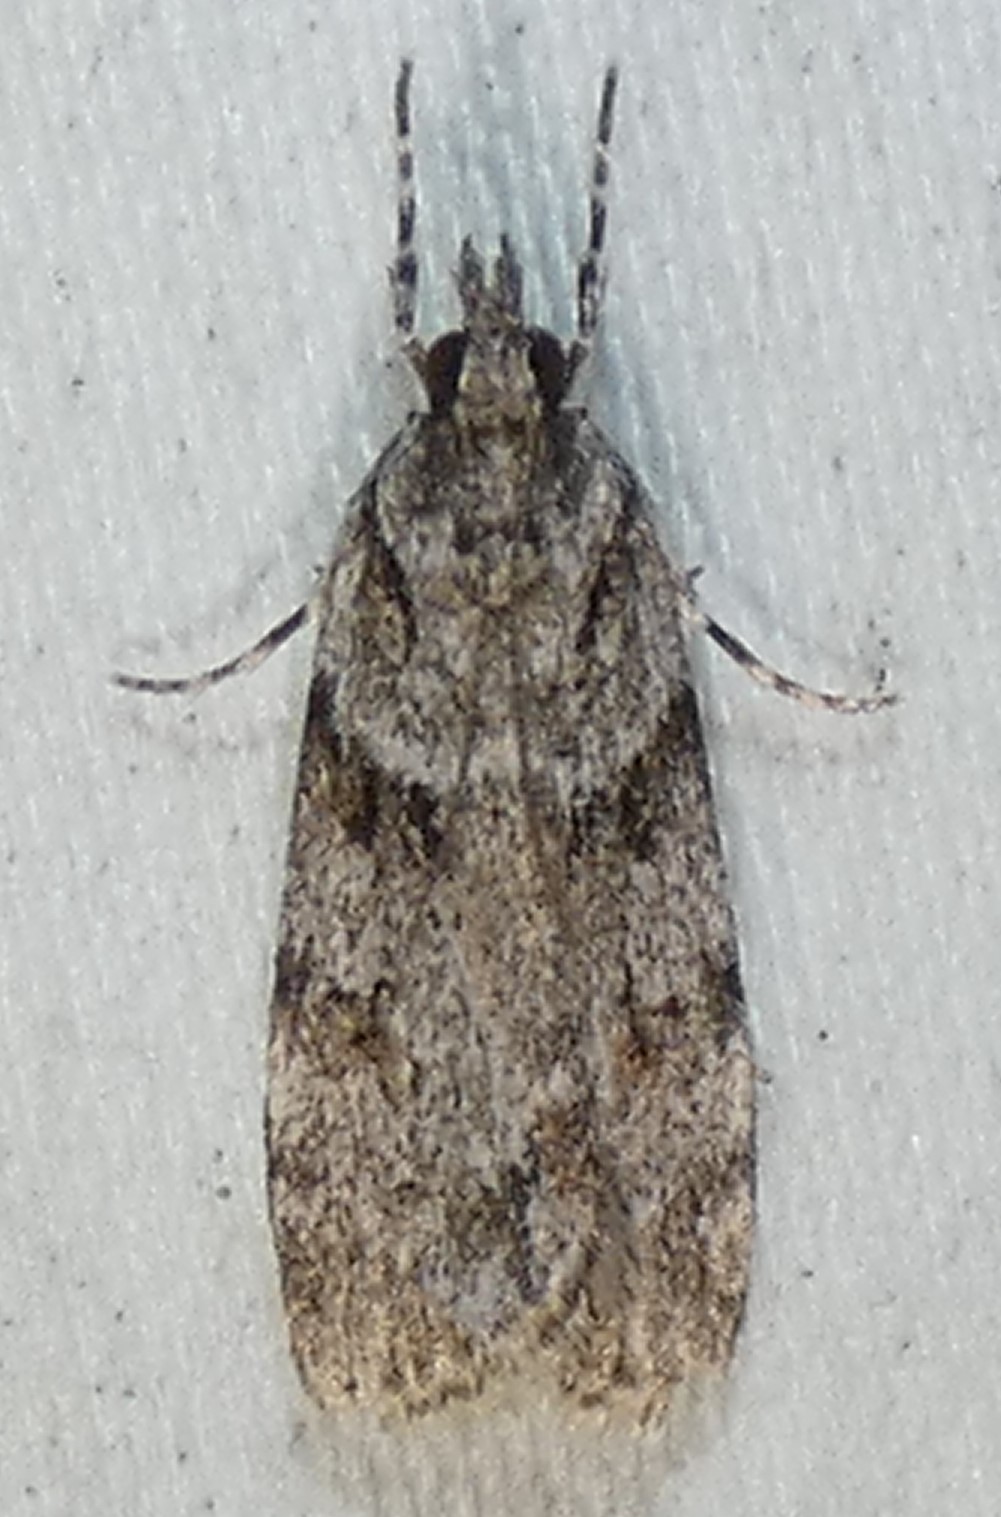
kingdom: Animalia
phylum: Arthropoda
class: Insecta
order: Lepidoptera
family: Crambidae
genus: Scoparia
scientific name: Scoparia biplagialis
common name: Double-striped scoparia moth
